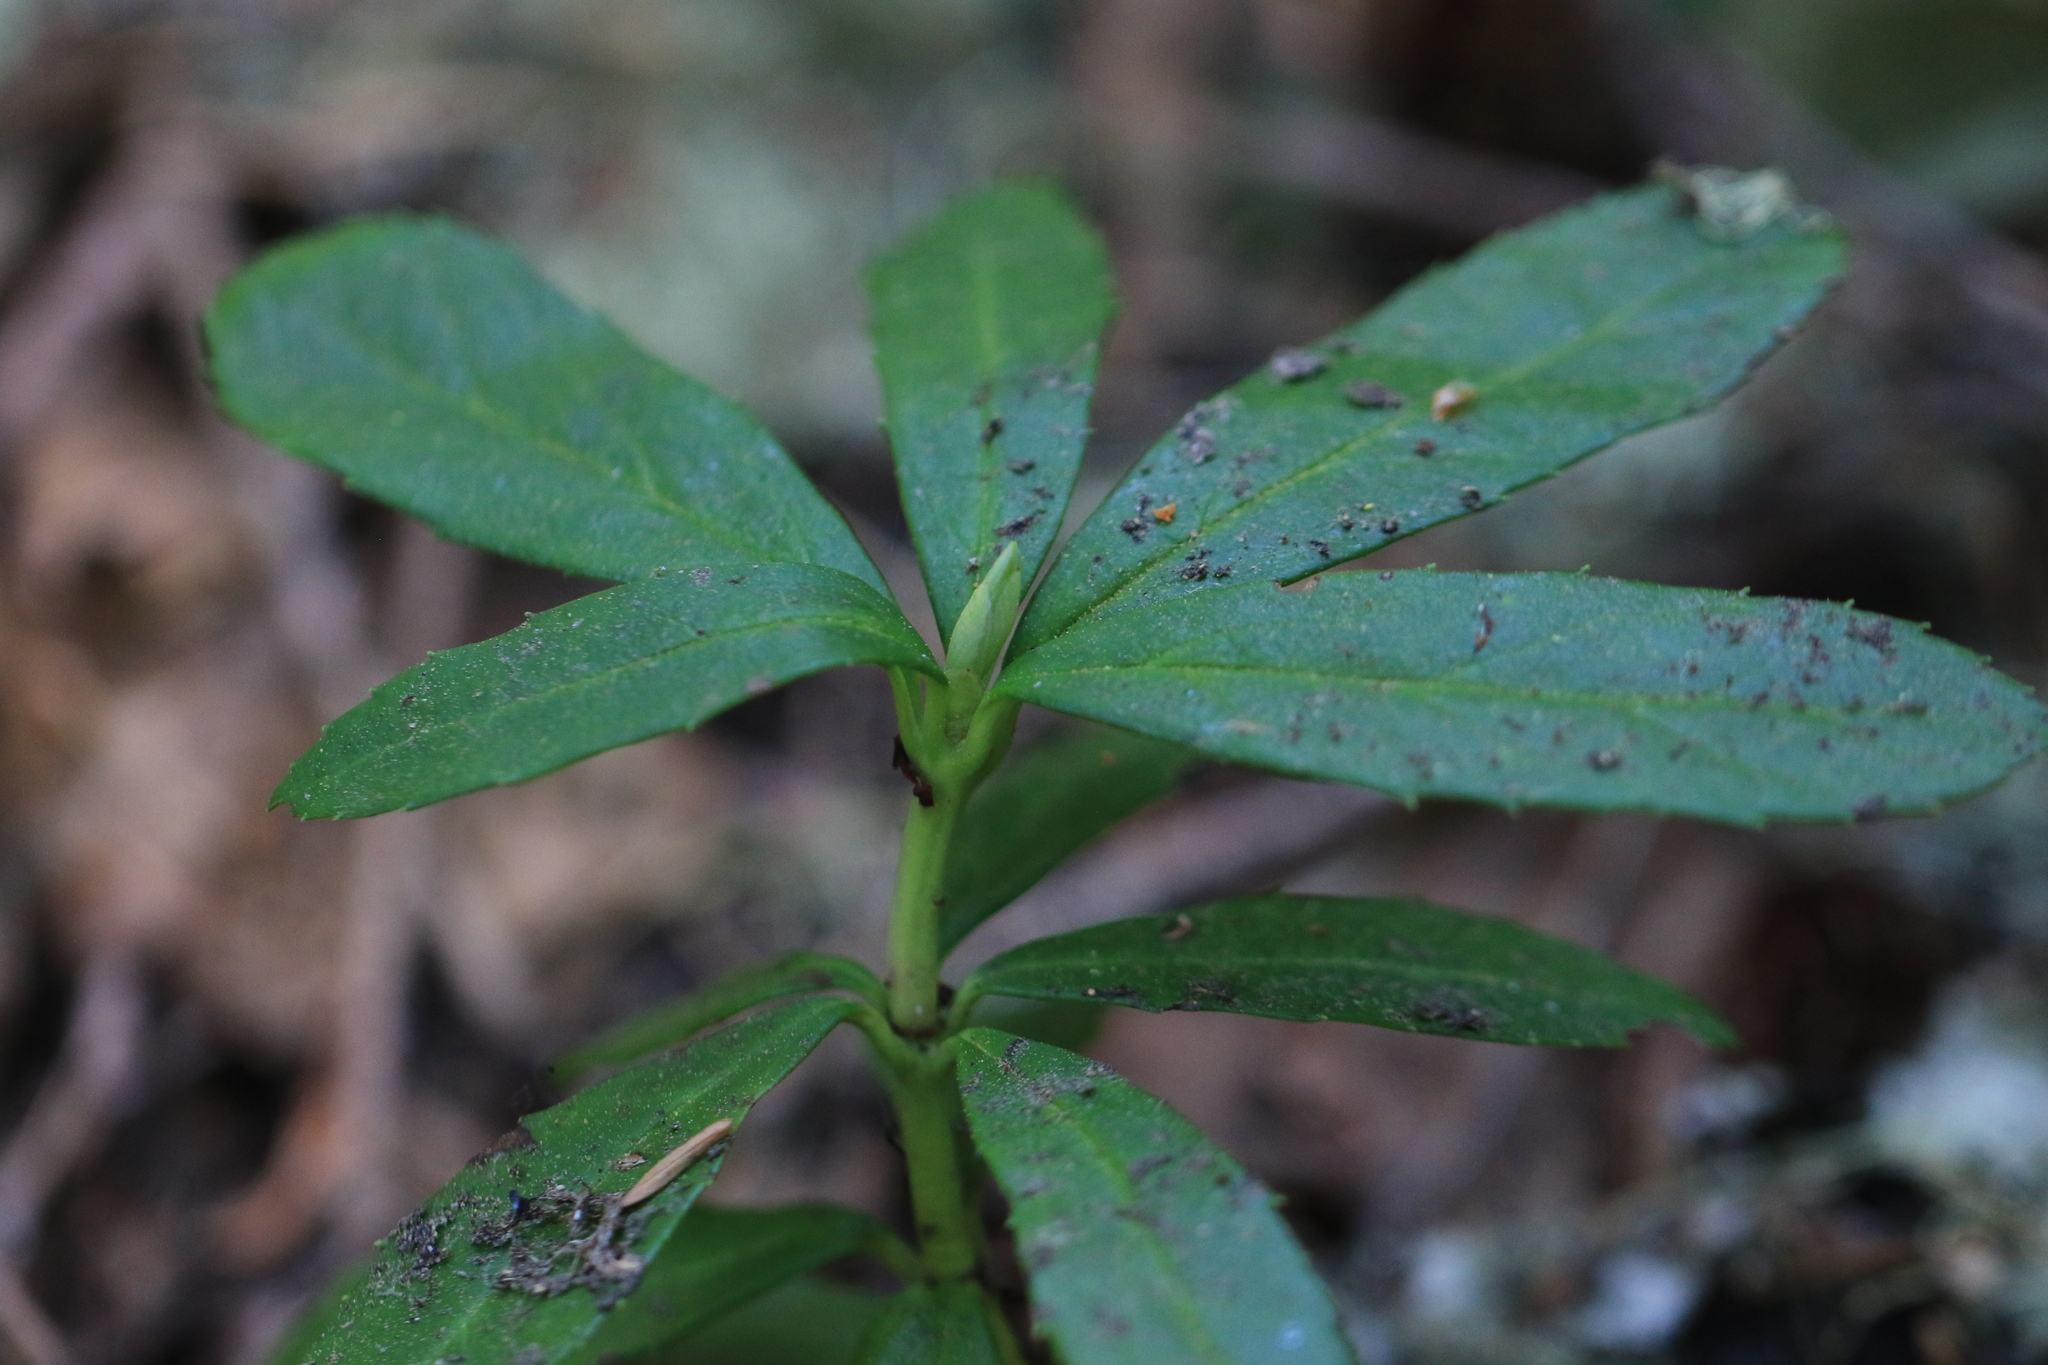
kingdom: Plantae
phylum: Tracheophyta
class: Magnoliopsida
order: Ericales
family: Ericaceae
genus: Chimaphila
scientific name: Chimaphila umbellata
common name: Pipsissewa
